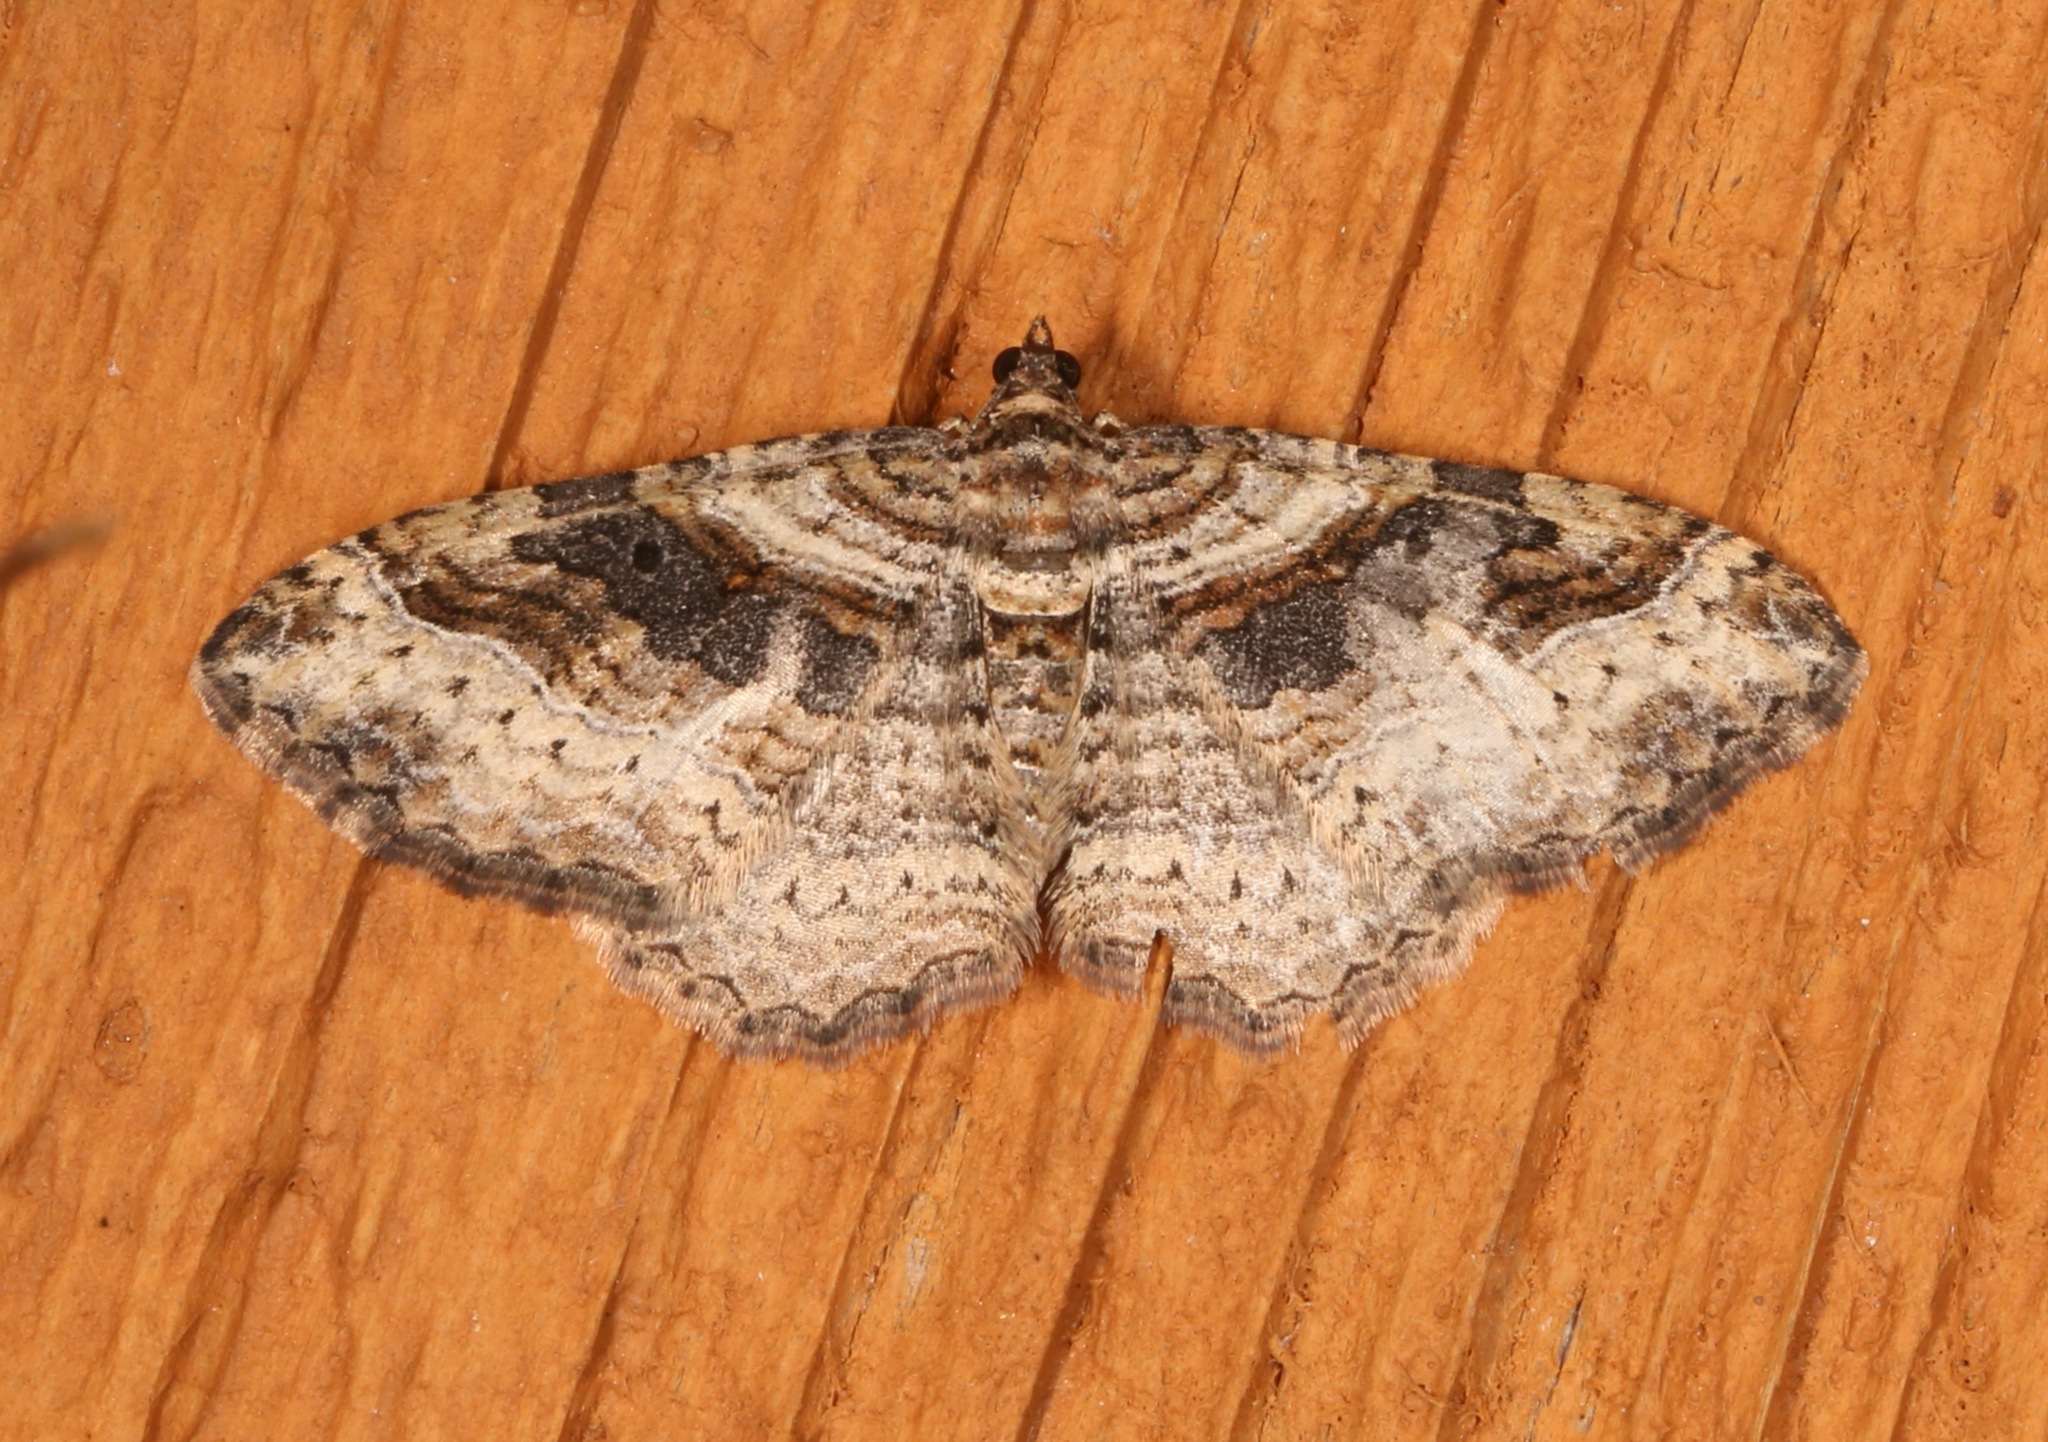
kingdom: Animalia
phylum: Arthropoda
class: Insecta
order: Lepidoptera
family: Geometridae
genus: Costaconvexa
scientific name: Costaconvexa centrostrigaria
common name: Bent-line carpet
